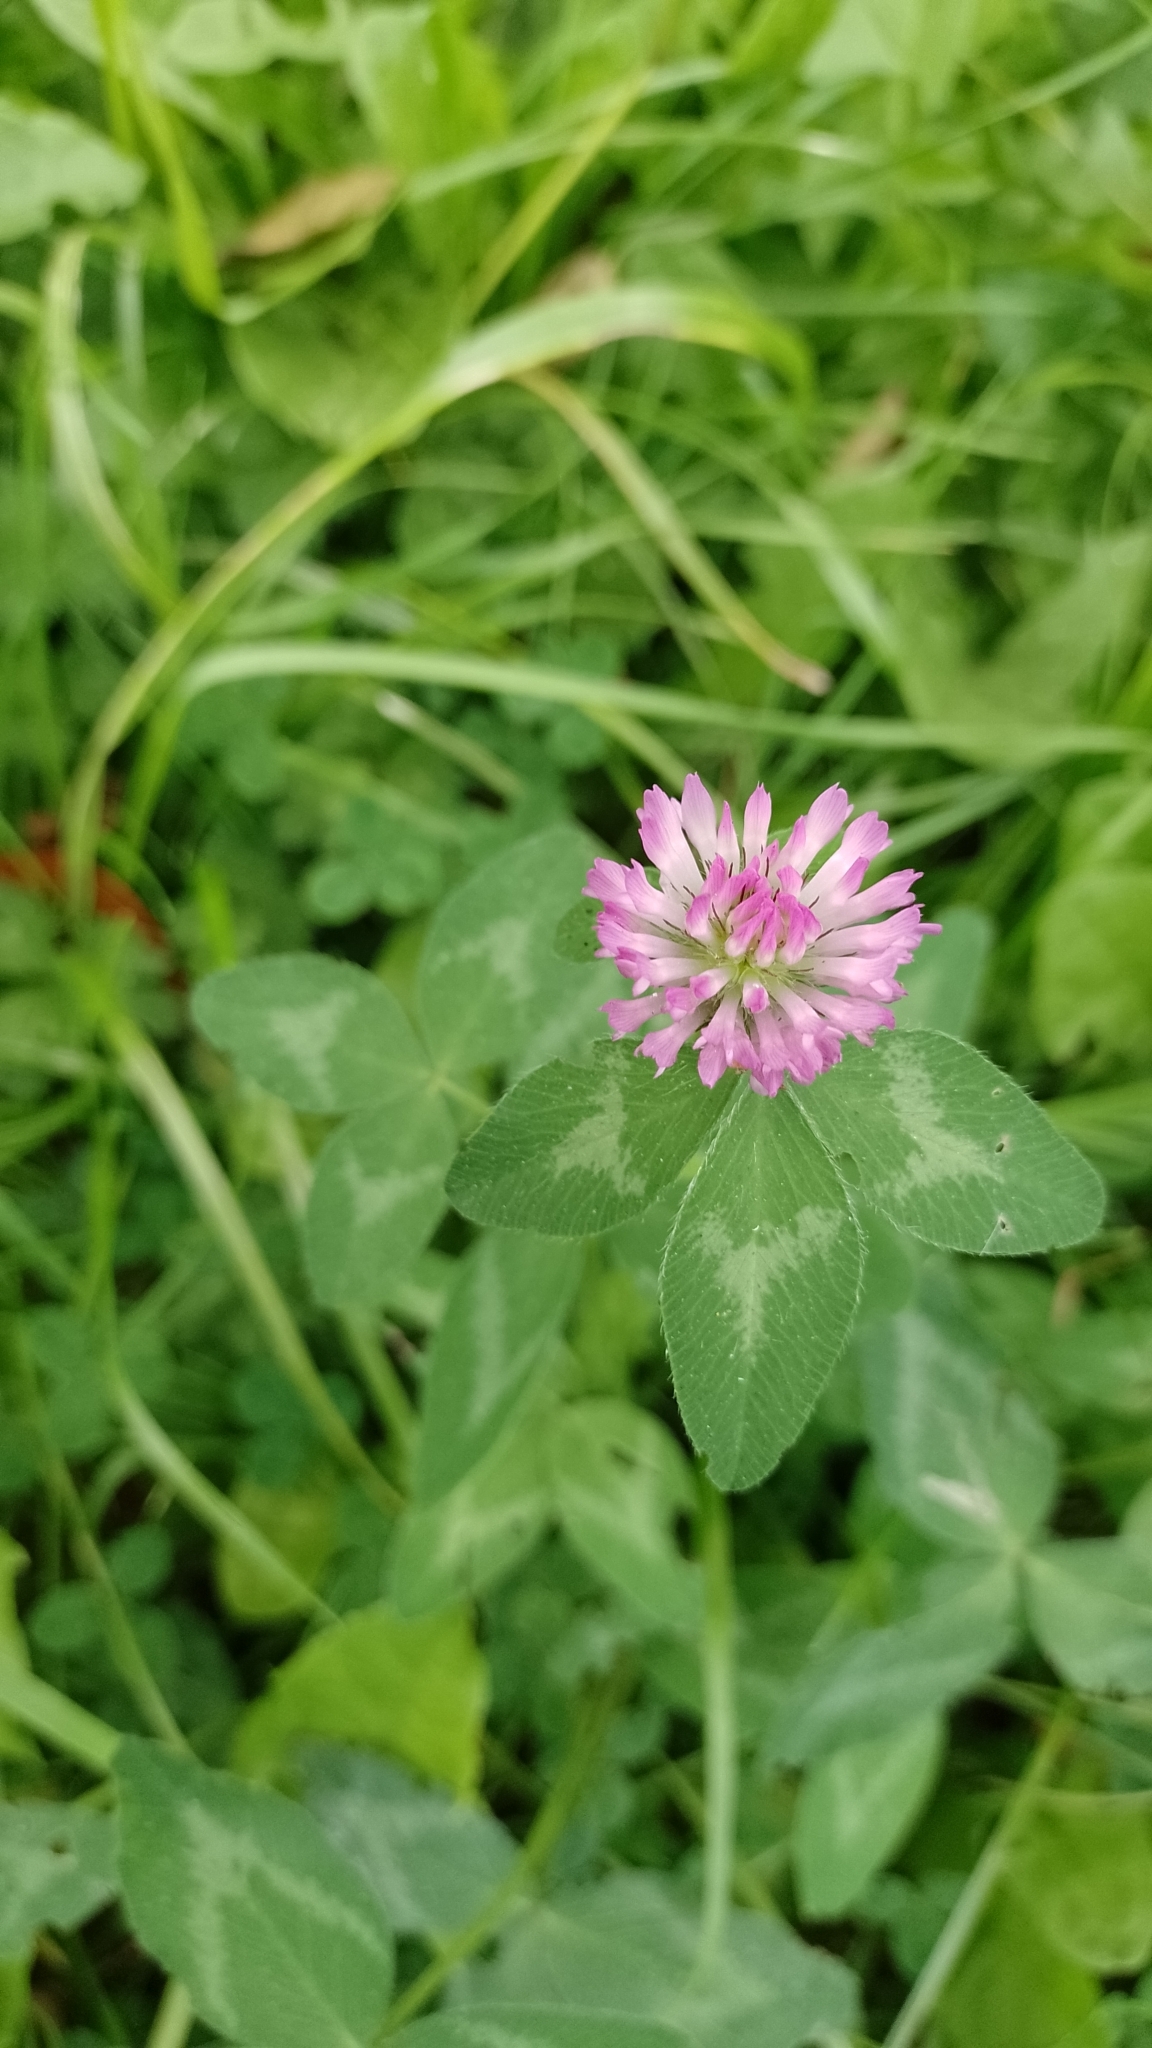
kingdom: Plantae
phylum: Tracheophyta
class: Magnoliopsida
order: Fabales
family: Fabaceae
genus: Trifolium
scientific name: Trifolium pratense
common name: Red clover
